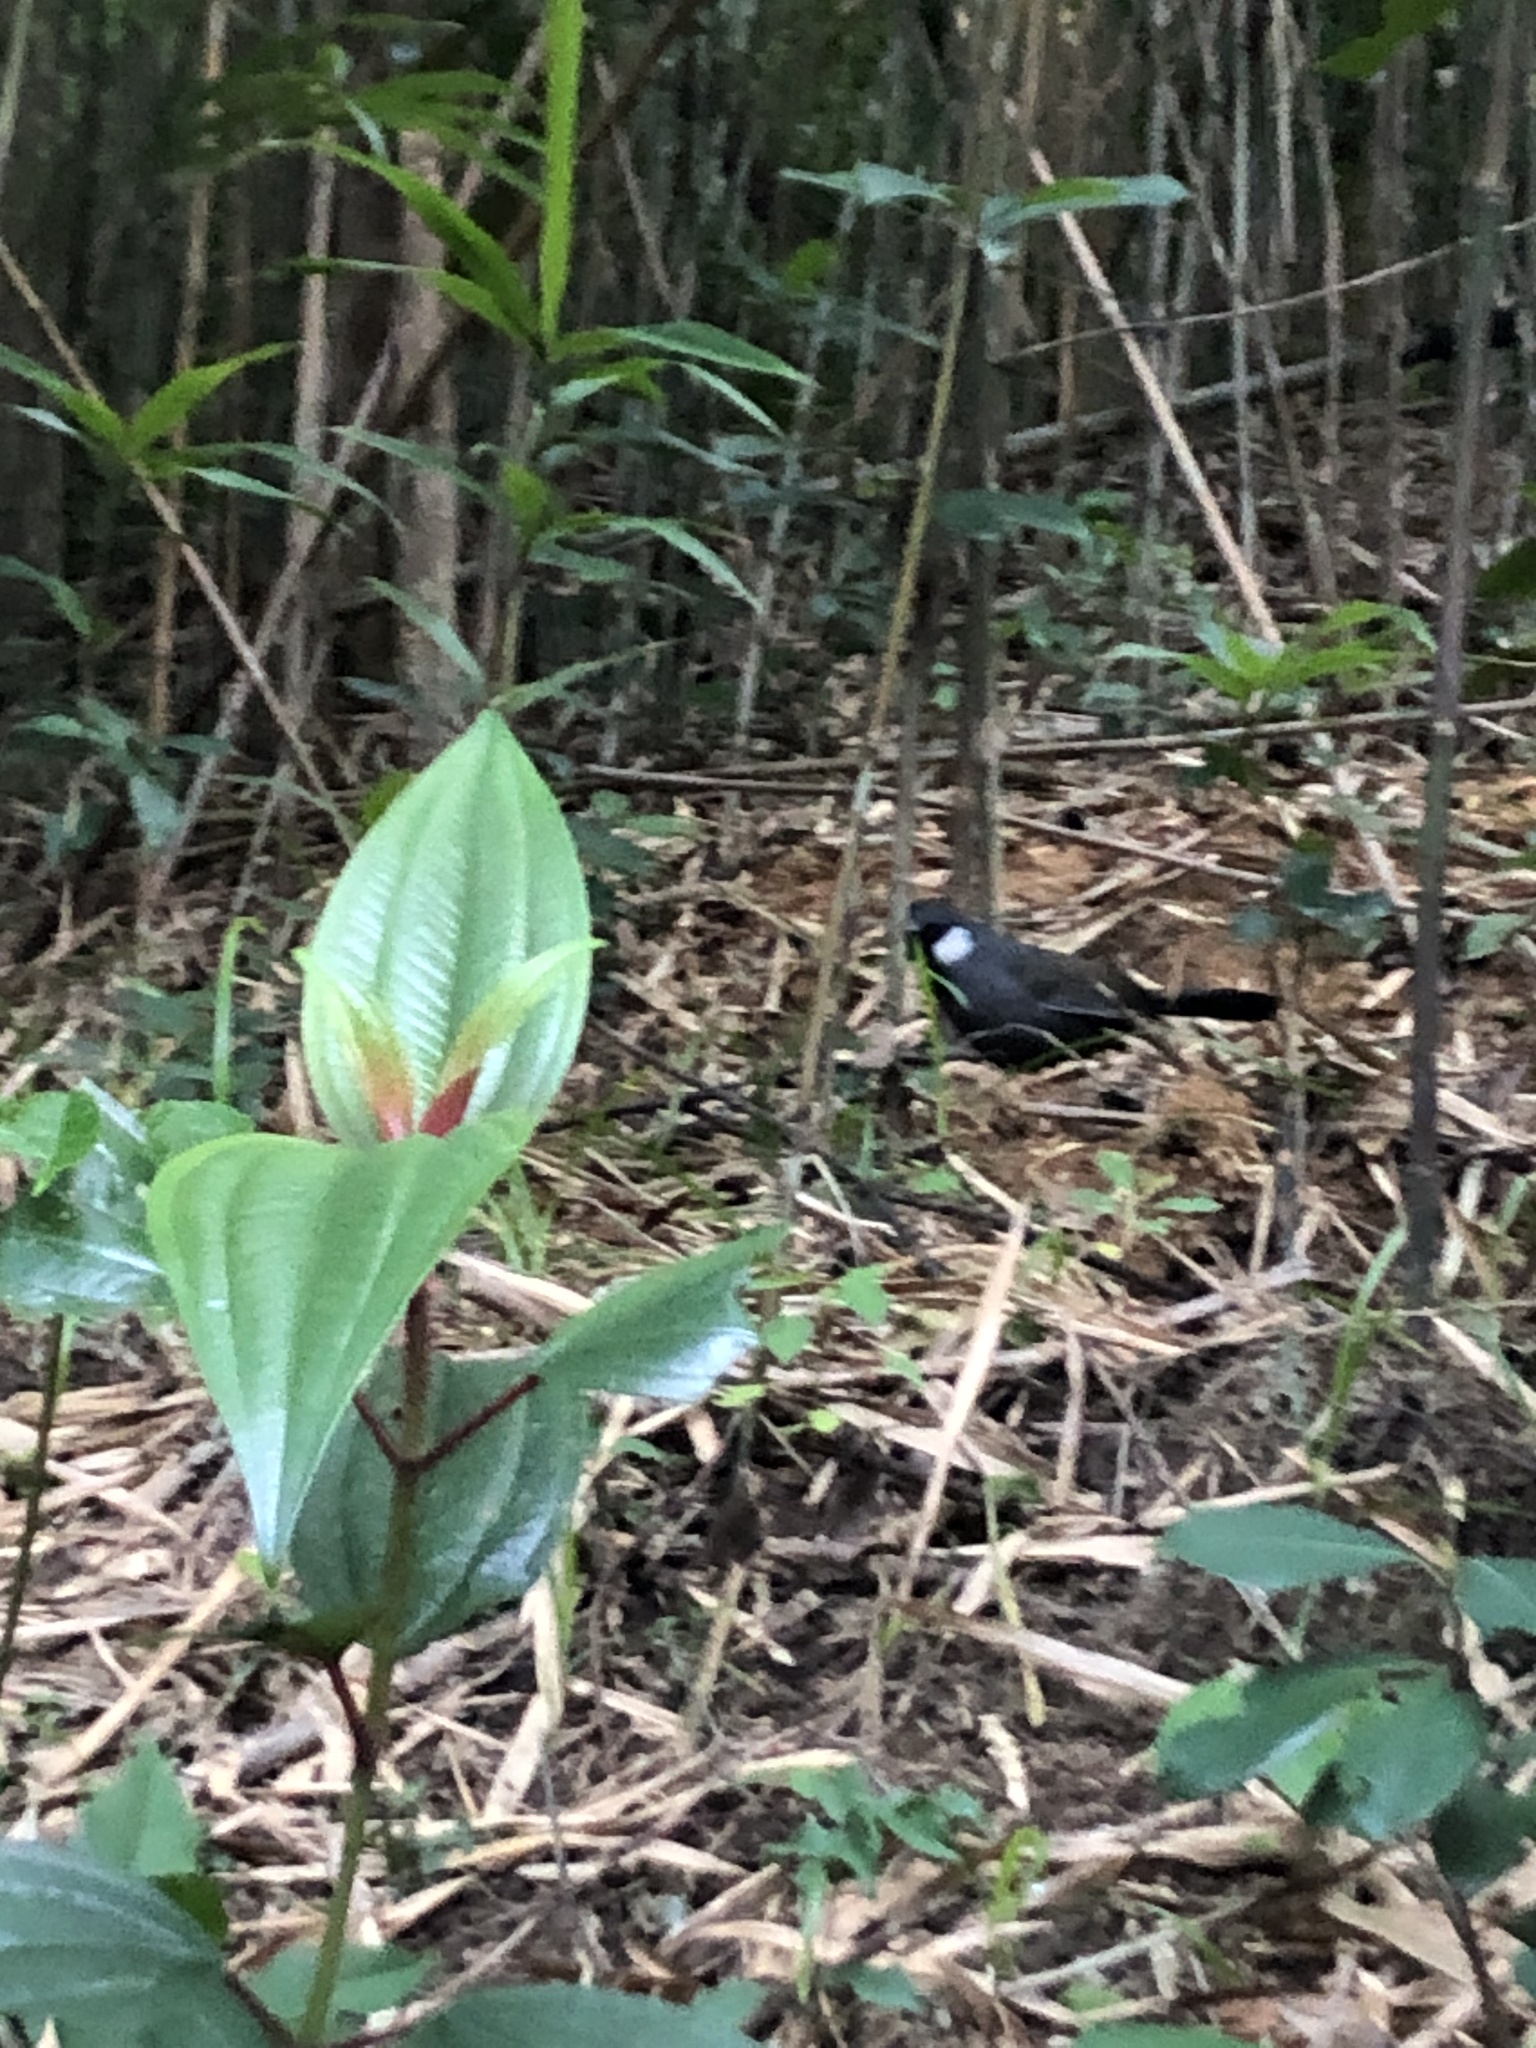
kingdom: Animalia
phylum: Chordata
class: Aves
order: Passeriformes
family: Leiothrichidae
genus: Garrulax
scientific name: Garrulax chinensis
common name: Black-throated laughingthrush
